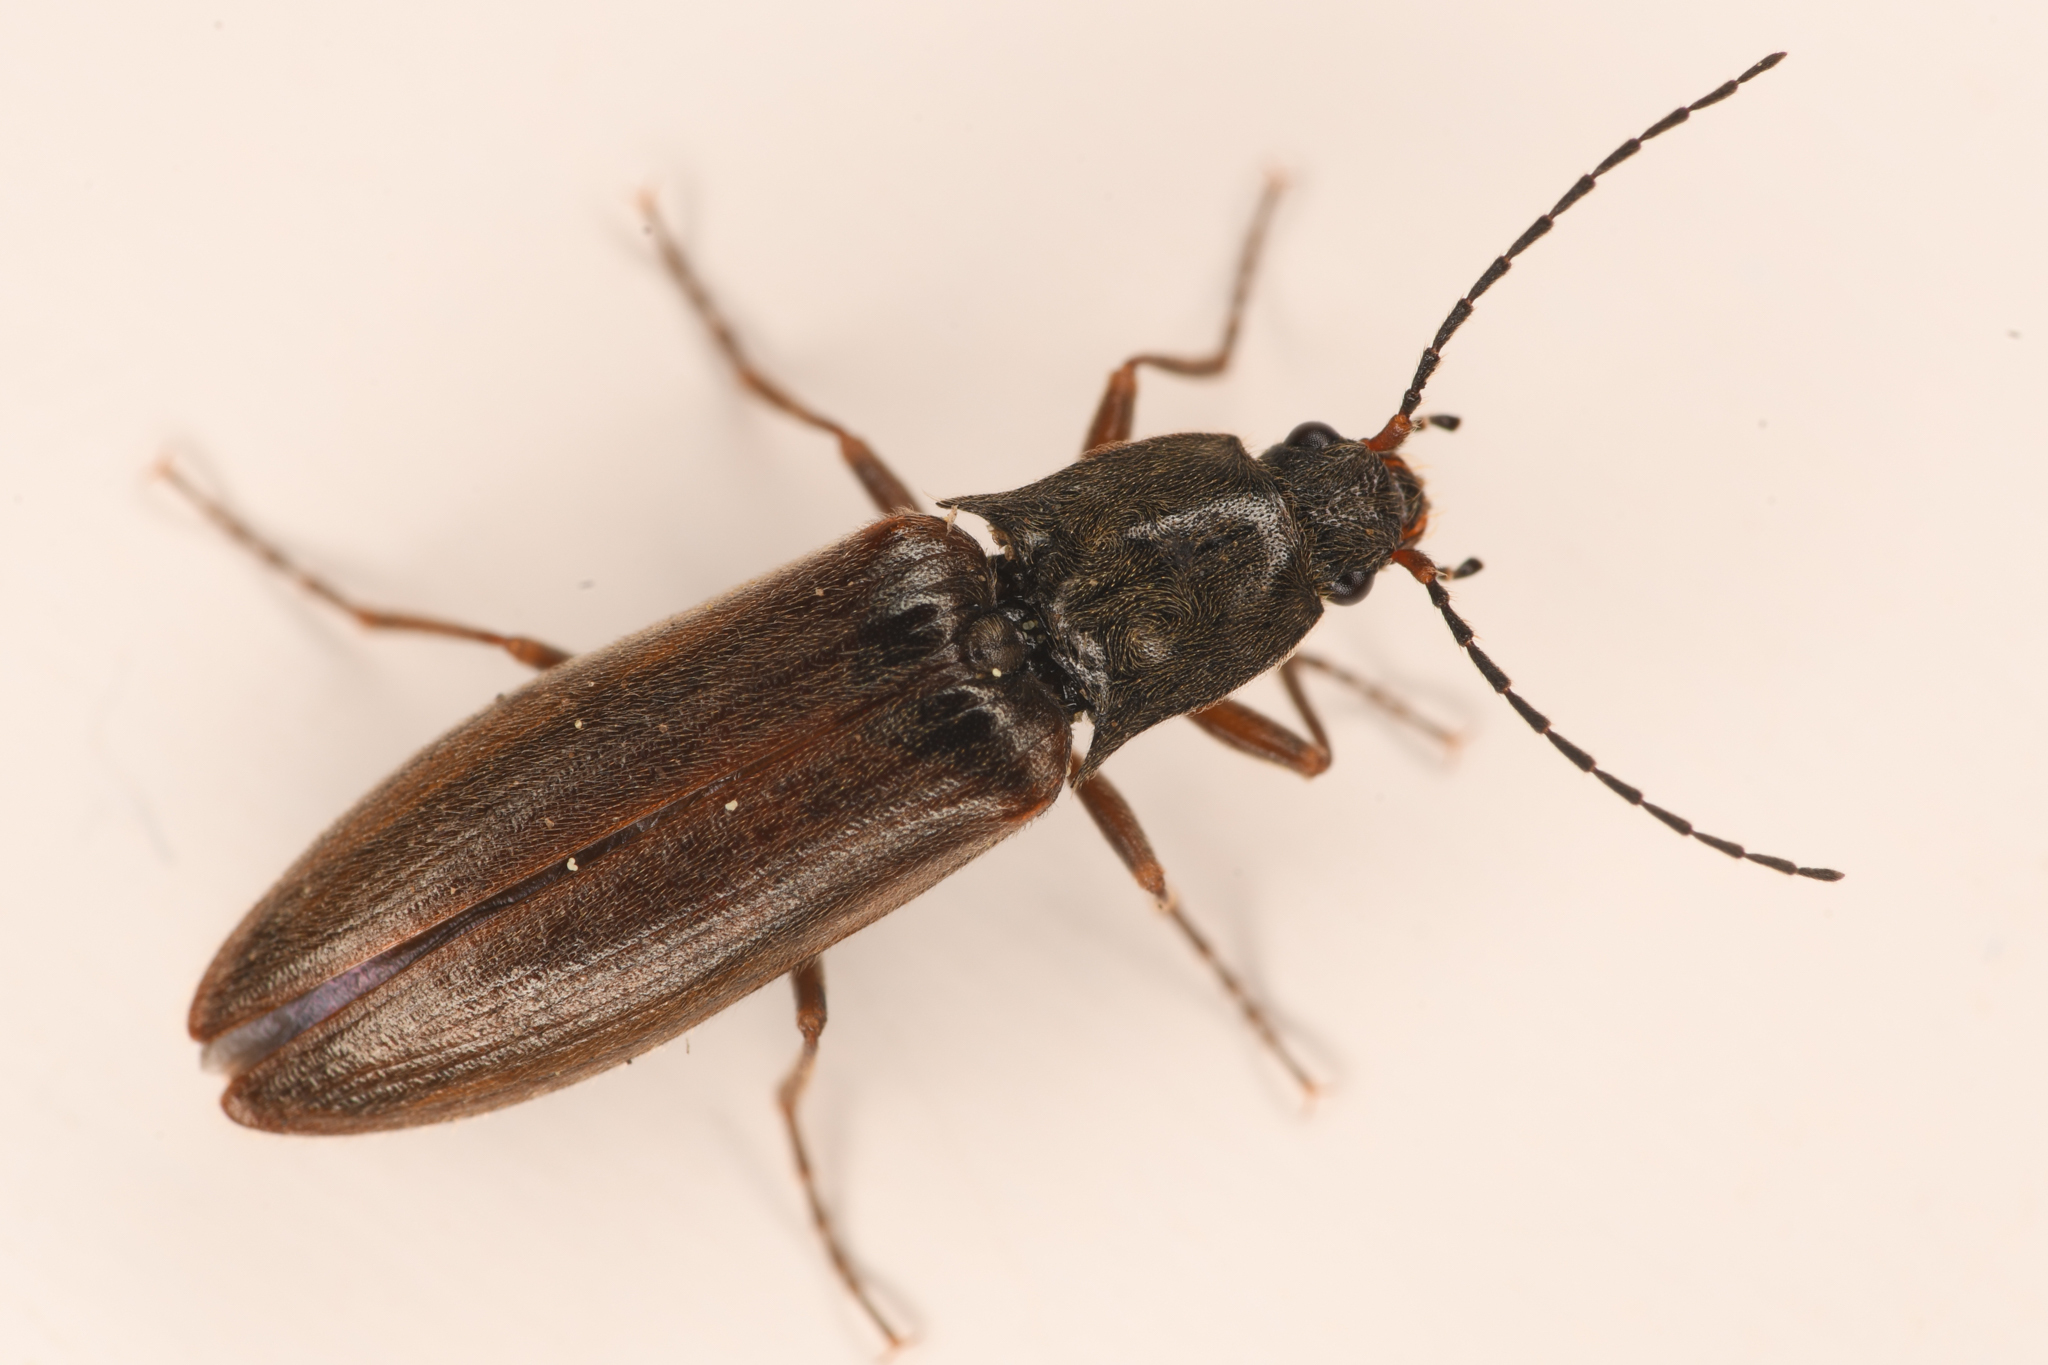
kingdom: Animalia
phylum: Arthropoda
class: Insecta
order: Coleoptera
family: Elateridae
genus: Metanomus
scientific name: Metanomus insidiosus
